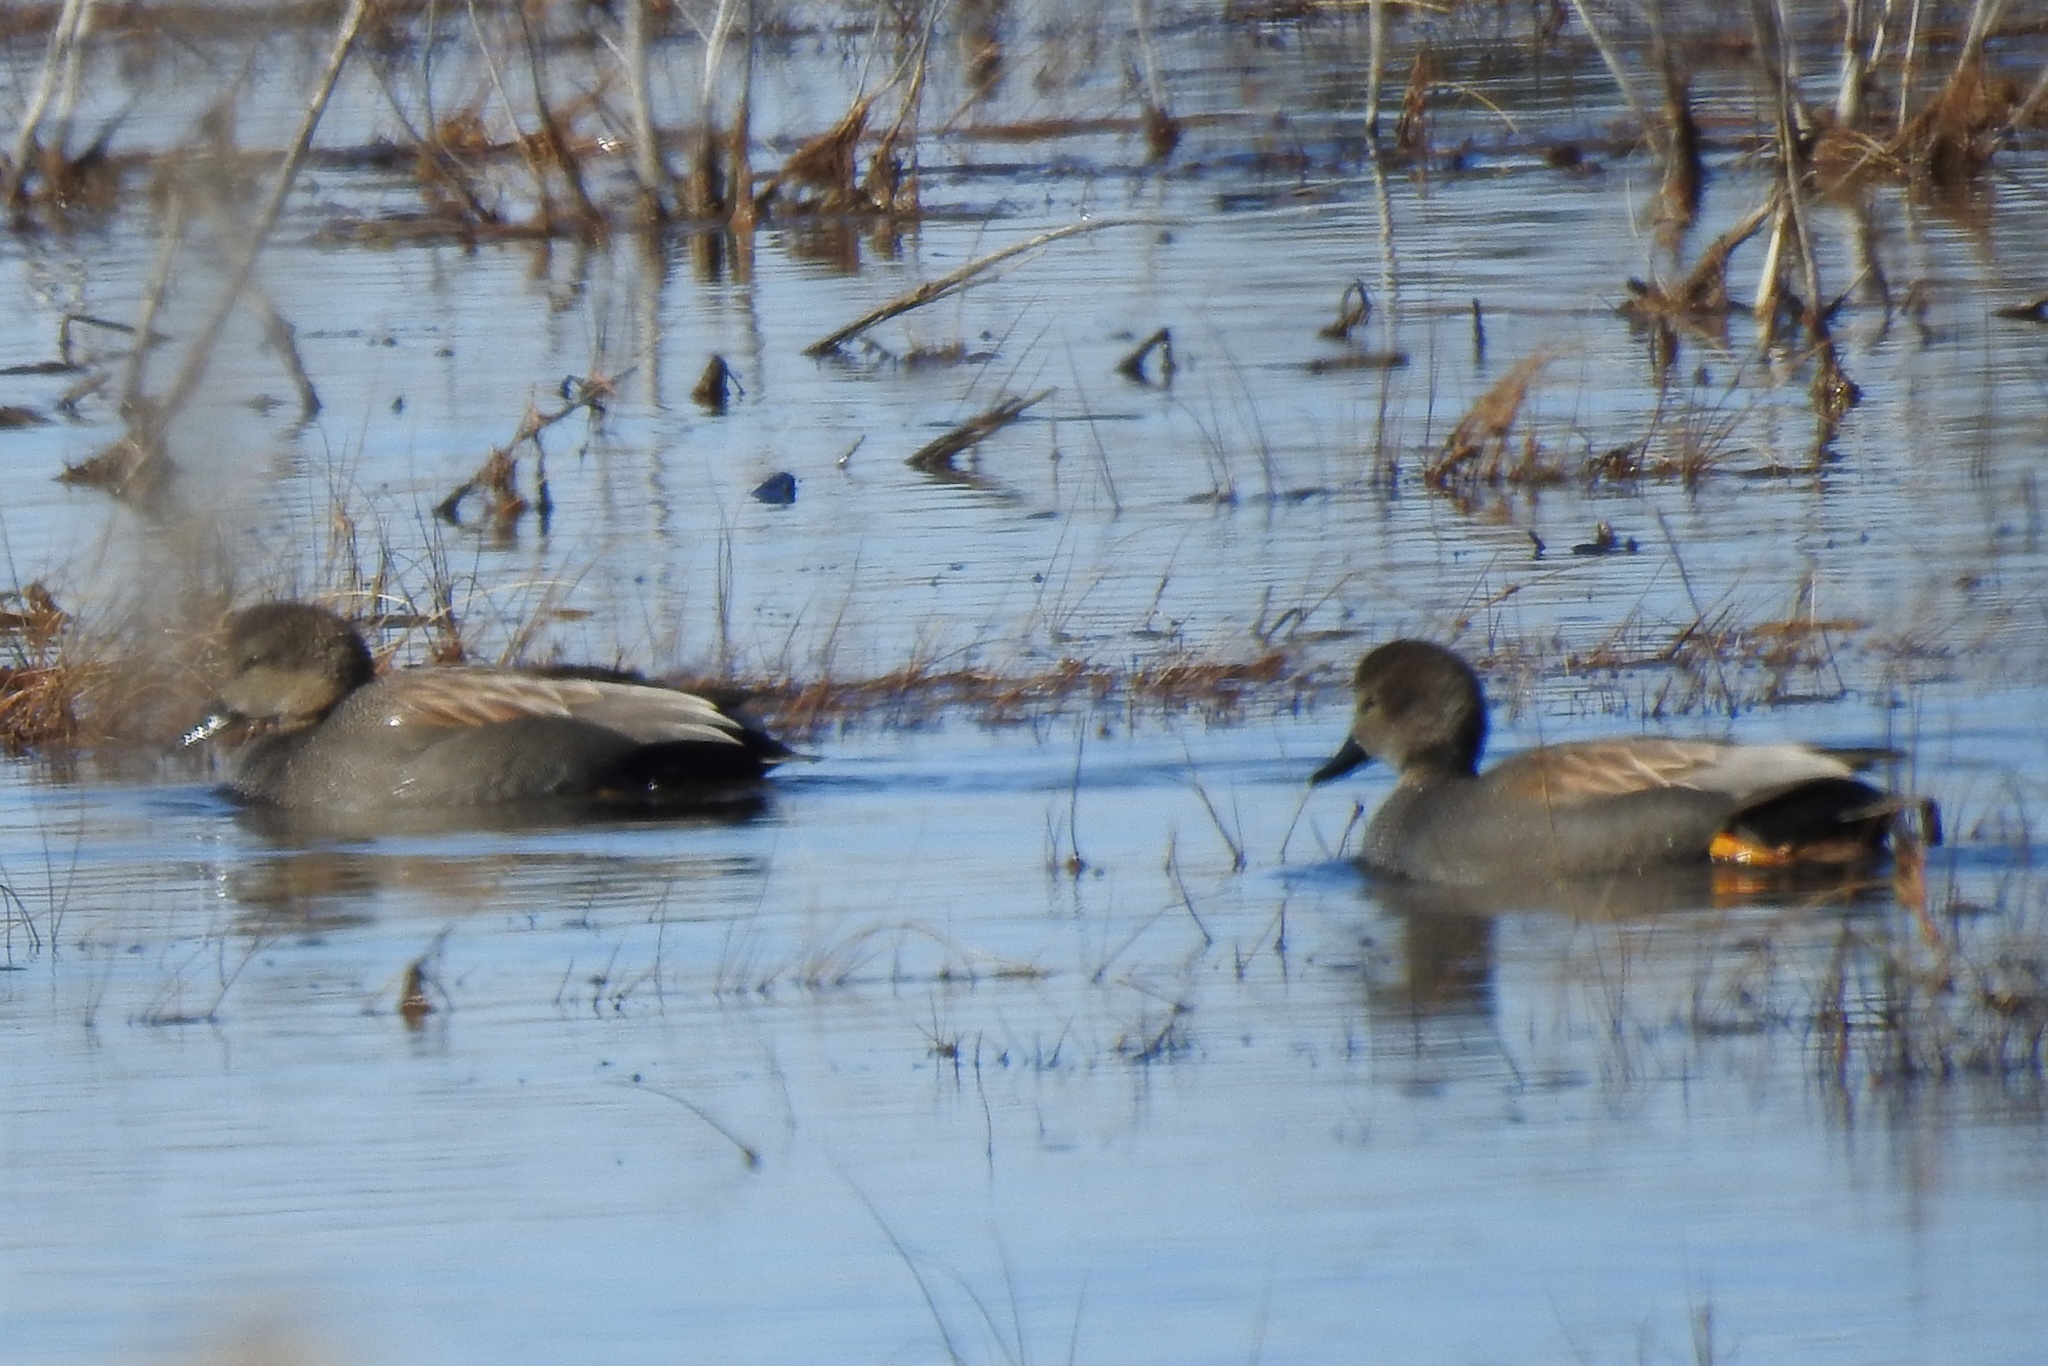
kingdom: Animalia
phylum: Chordata
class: Aves
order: Anseriformes
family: Anatidae
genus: Mareca
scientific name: Mareca strepera
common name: Gadwall
